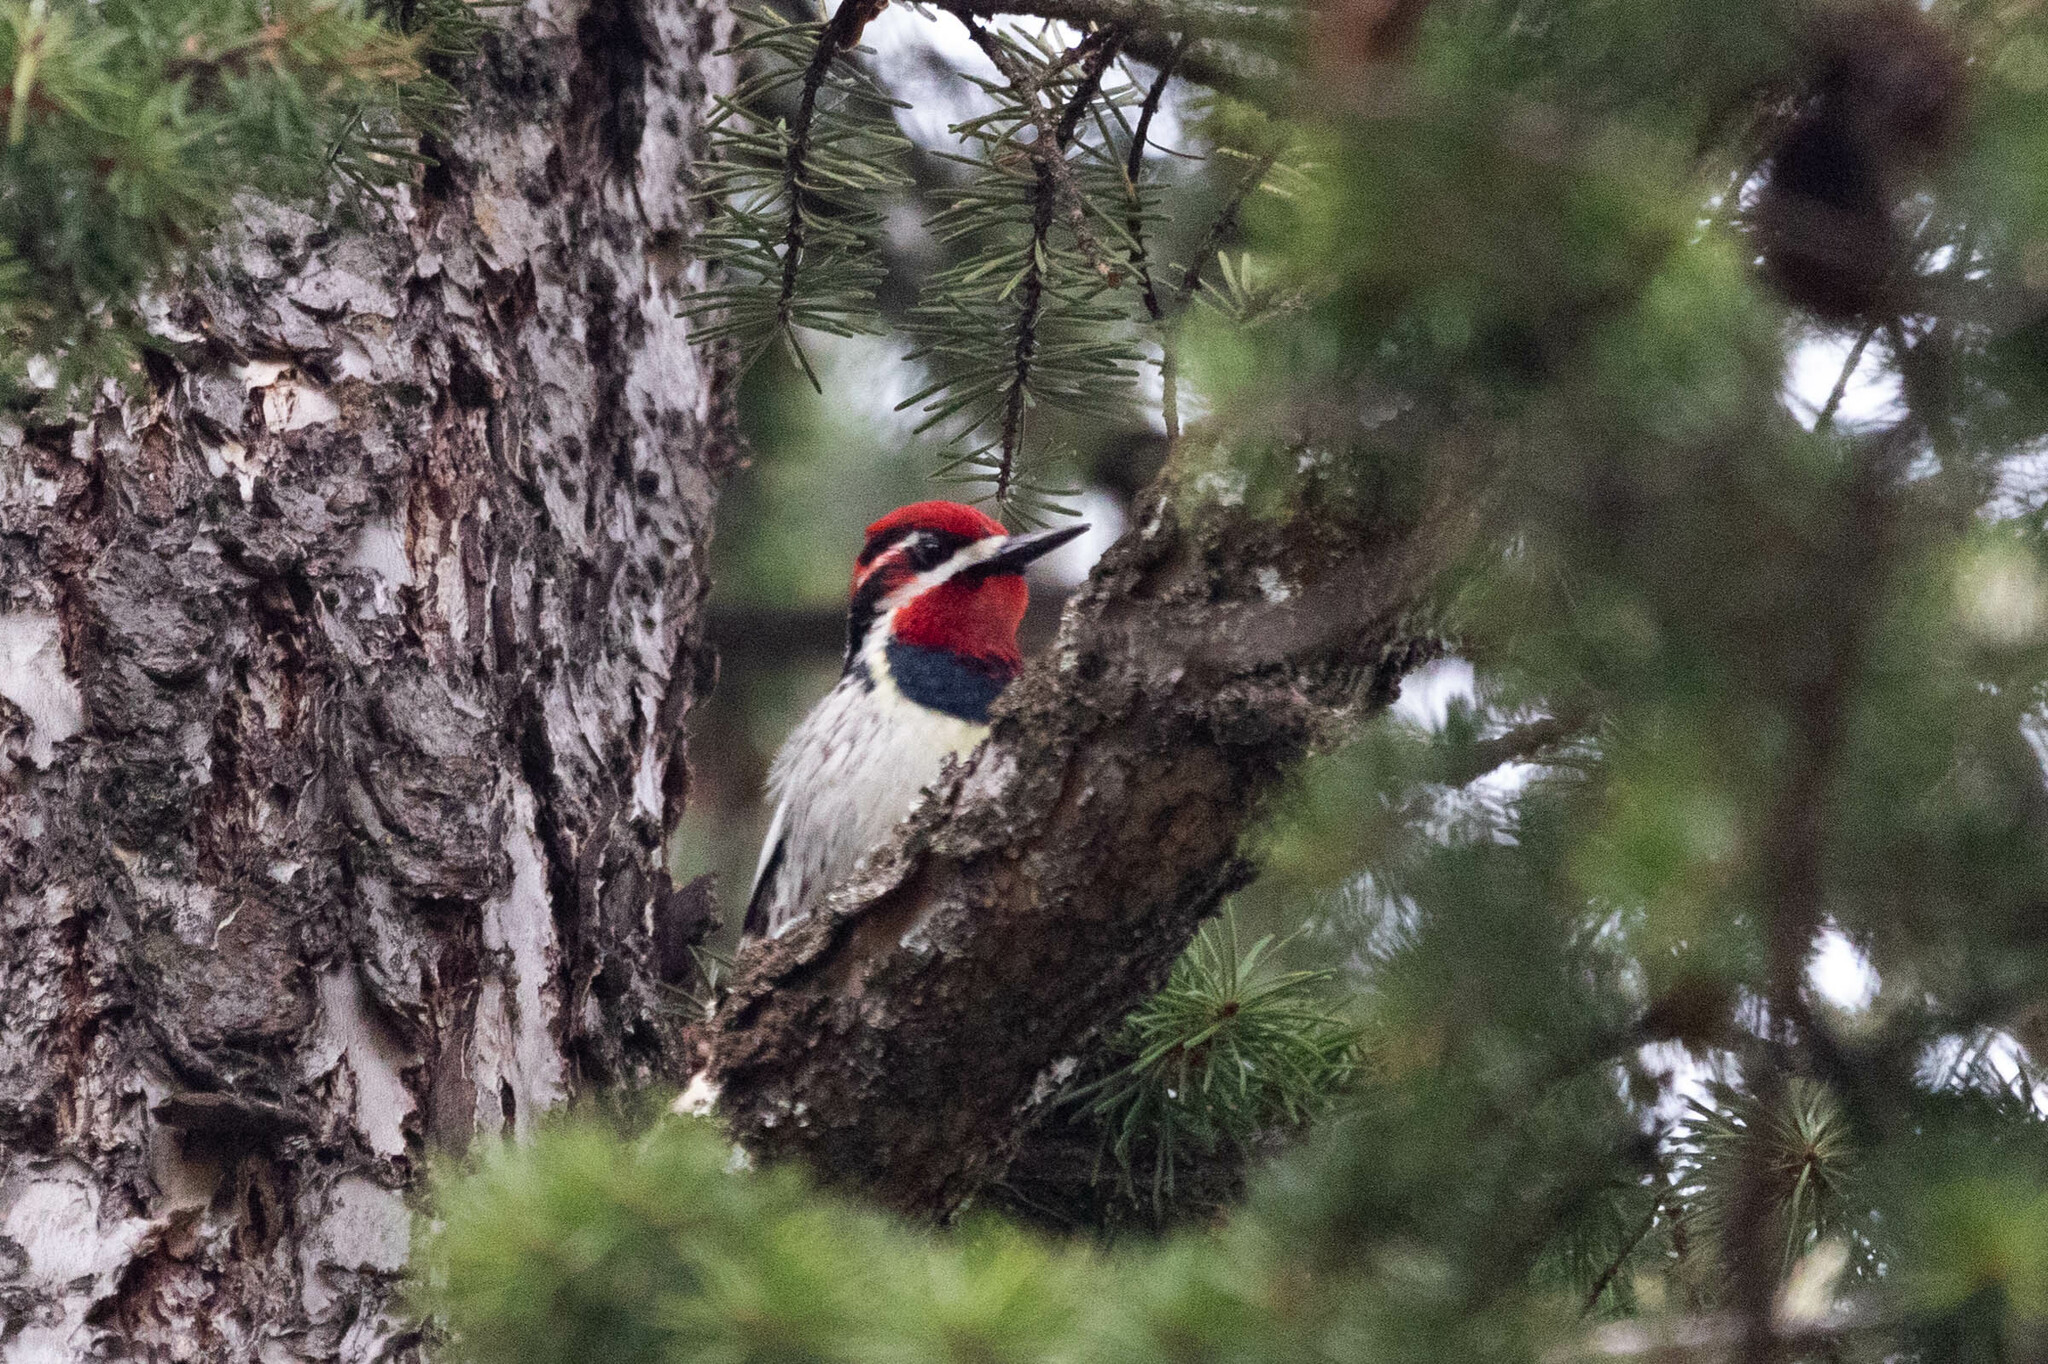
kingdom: Animalia
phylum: Chordata
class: Aves
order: Piciformes
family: Picidae
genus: Sphyrapicus
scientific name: Sphyrapicus nuchalis
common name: Red-naped sapsucker
